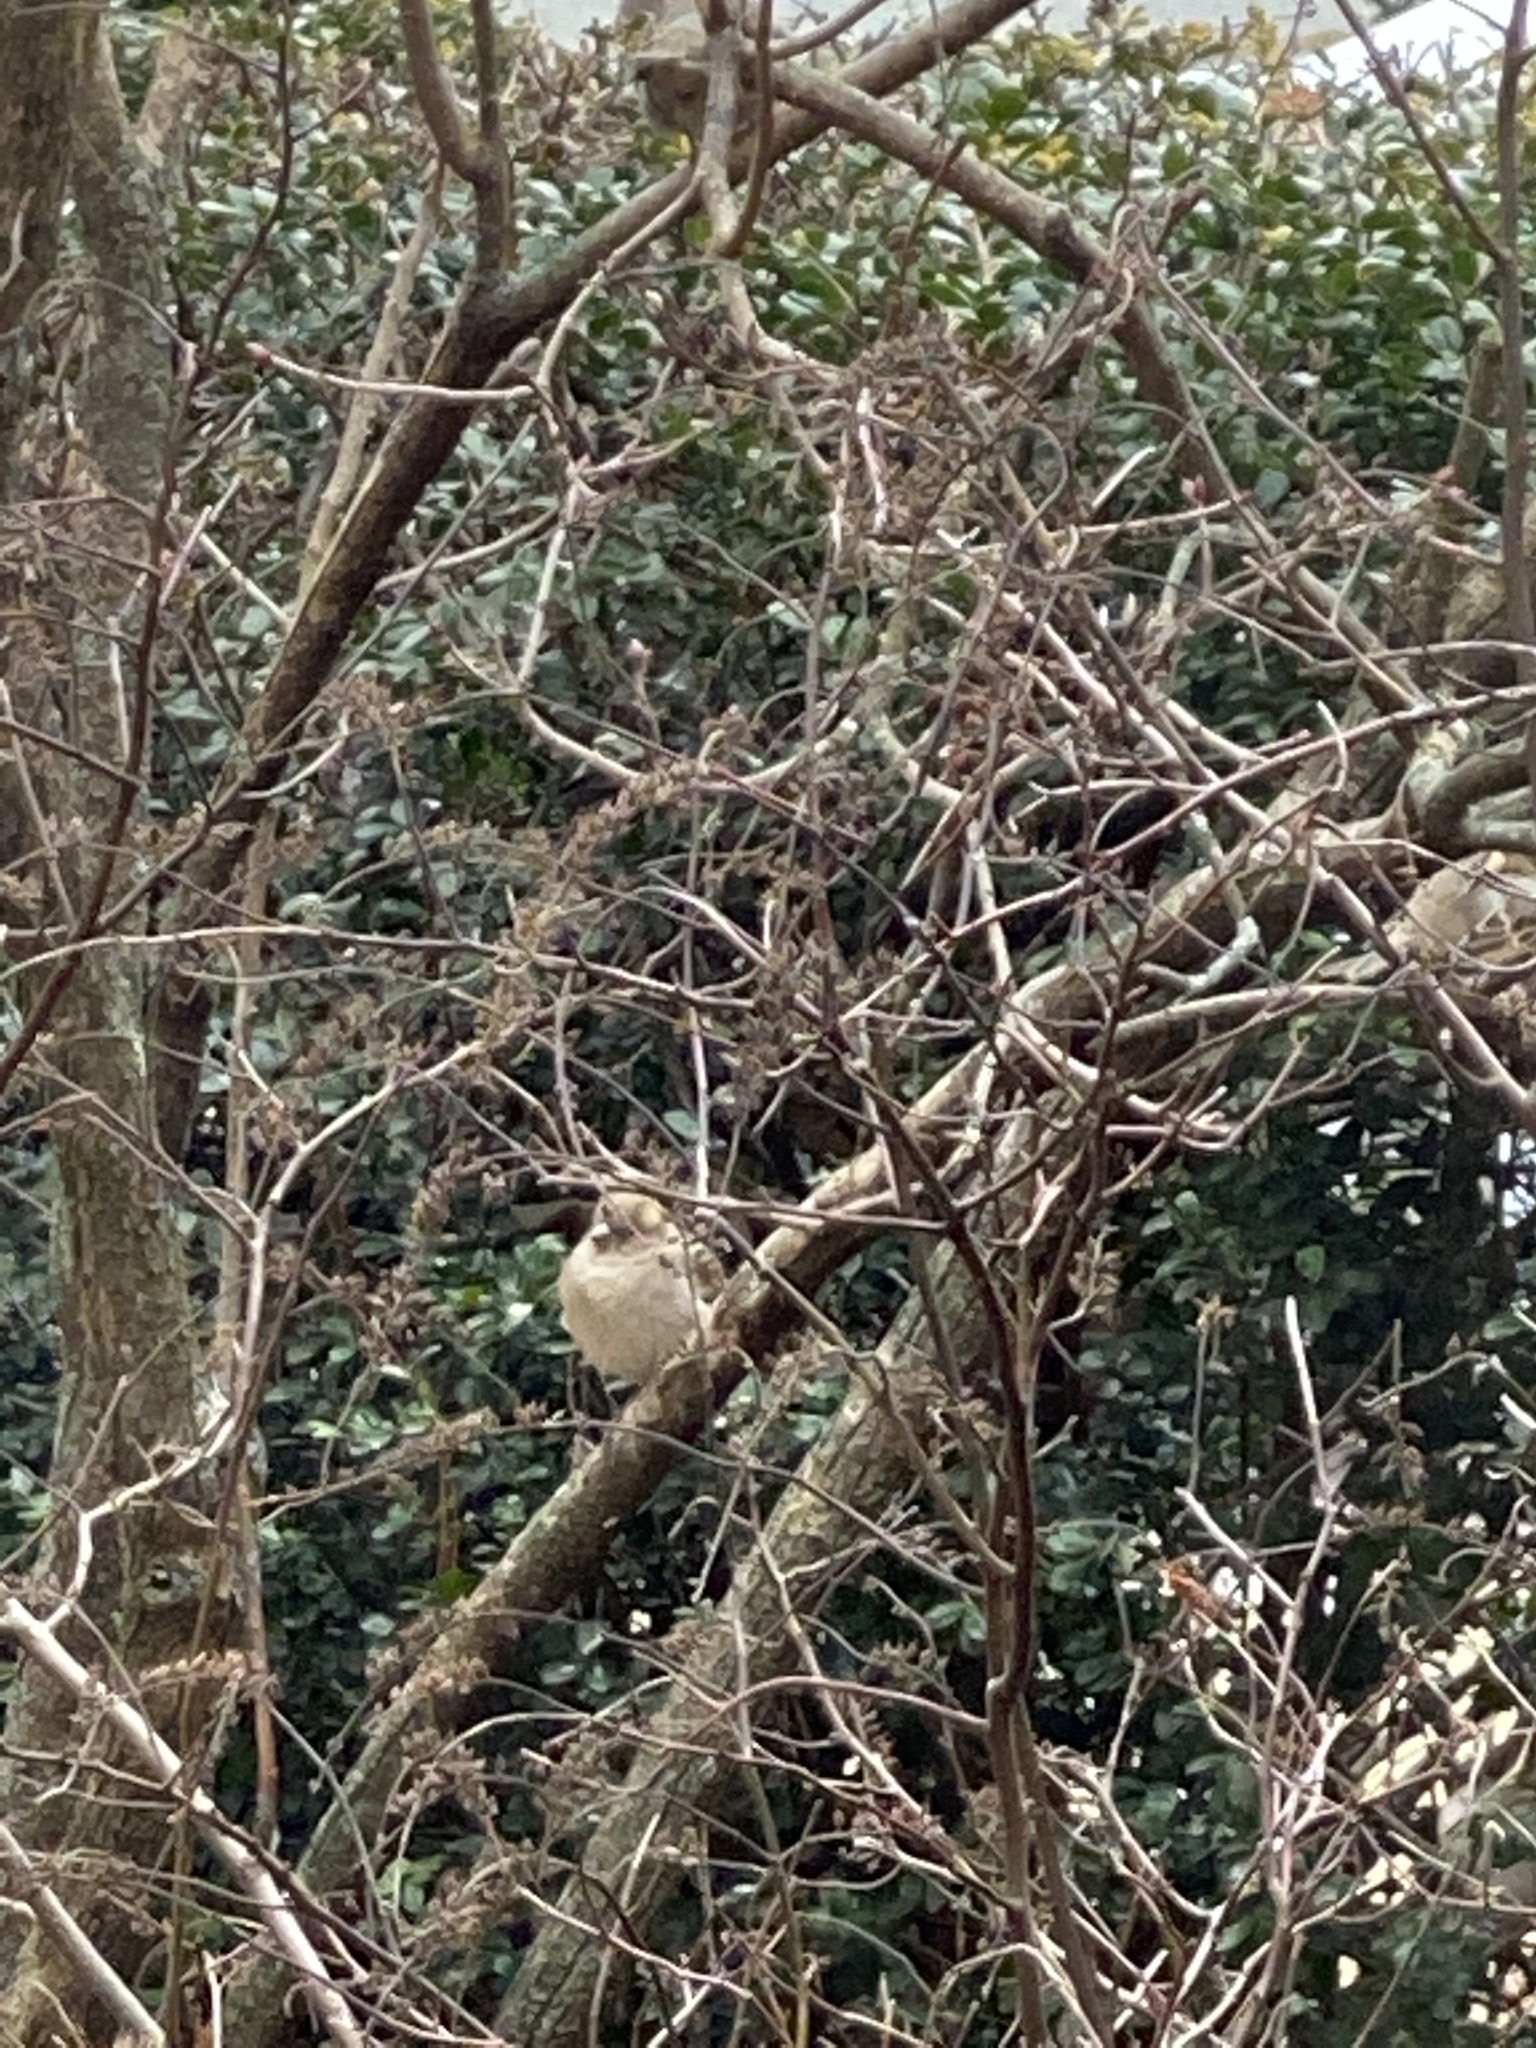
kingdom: Animalia
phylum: Chordata
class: Aves
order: Passeriformes
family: Passeridae
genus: Passer
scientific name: Passer domesticus
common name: House sparrow
